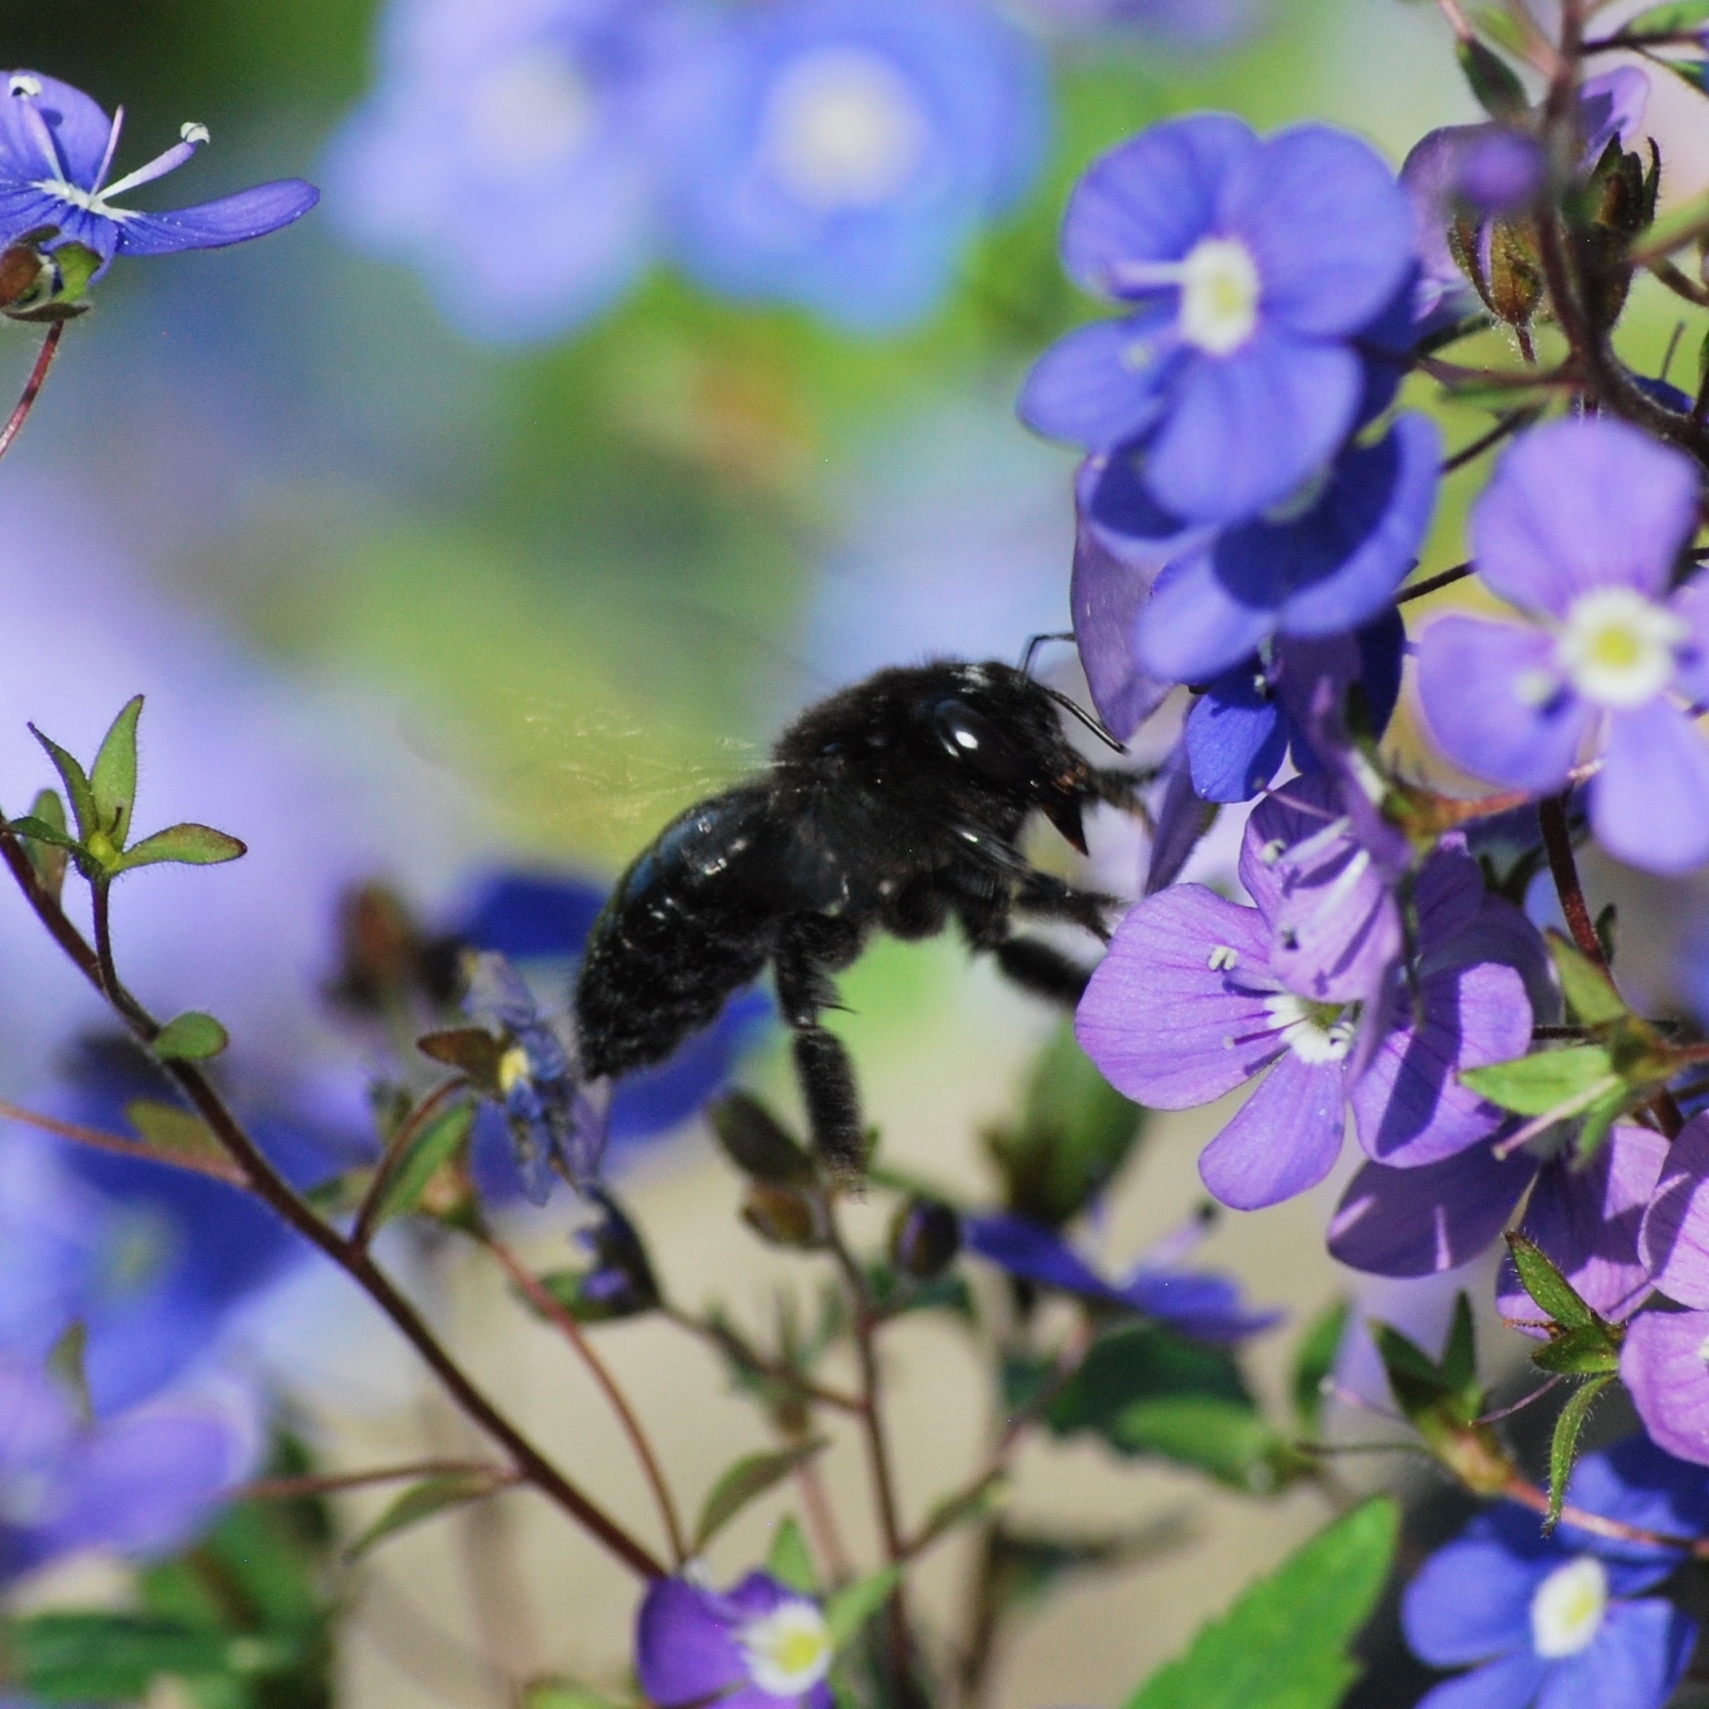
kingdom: Animalia
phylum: Arthropoda
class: Insecta
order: Hymenoptera
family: Apidae
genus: Xylocopa
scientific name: Xylocopa tabaniformis
